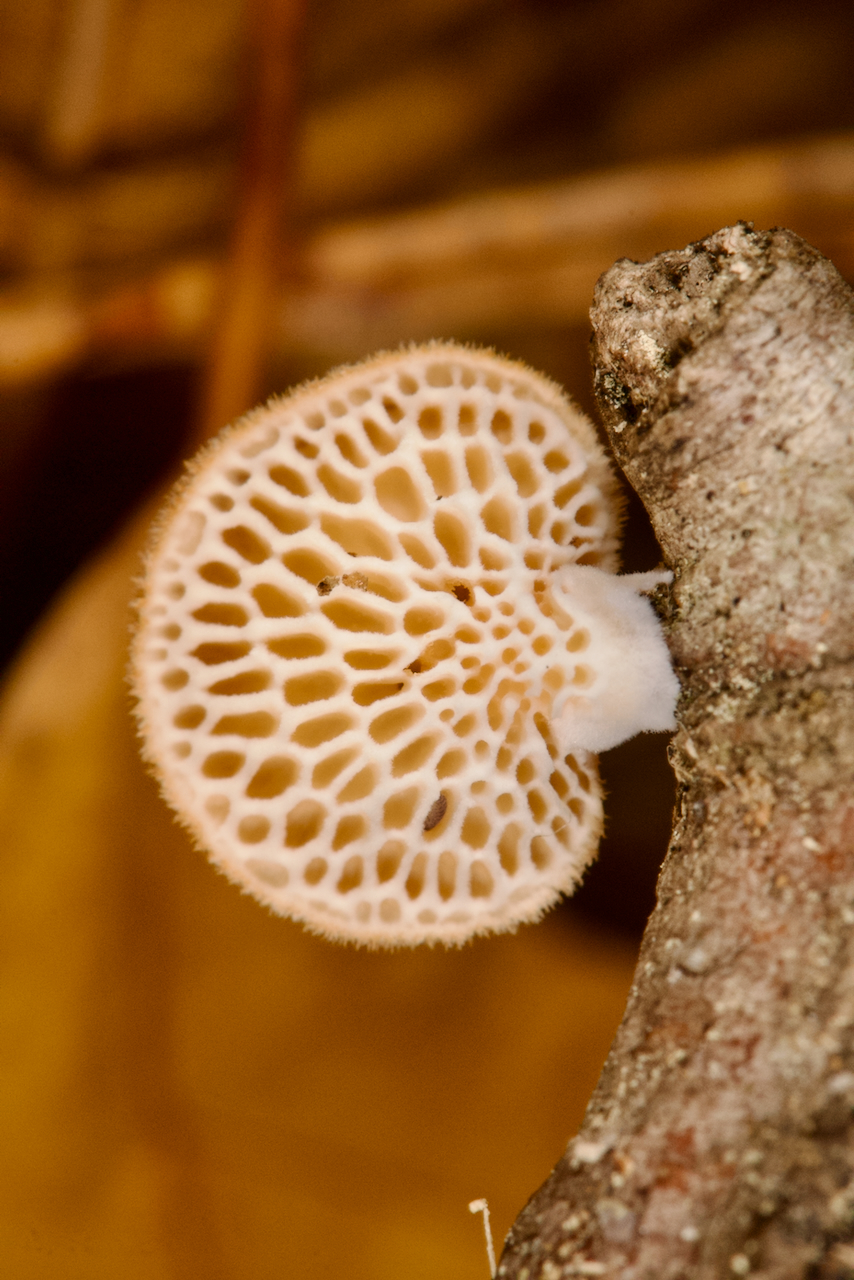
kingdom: Fungi
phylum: Basidiomycota
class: Agaricomycetes
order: Polyporales
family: Polyporaceae
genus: Neofavolus
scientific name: Neofavolus alveolaris
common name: Hexagonal-pored polypore
